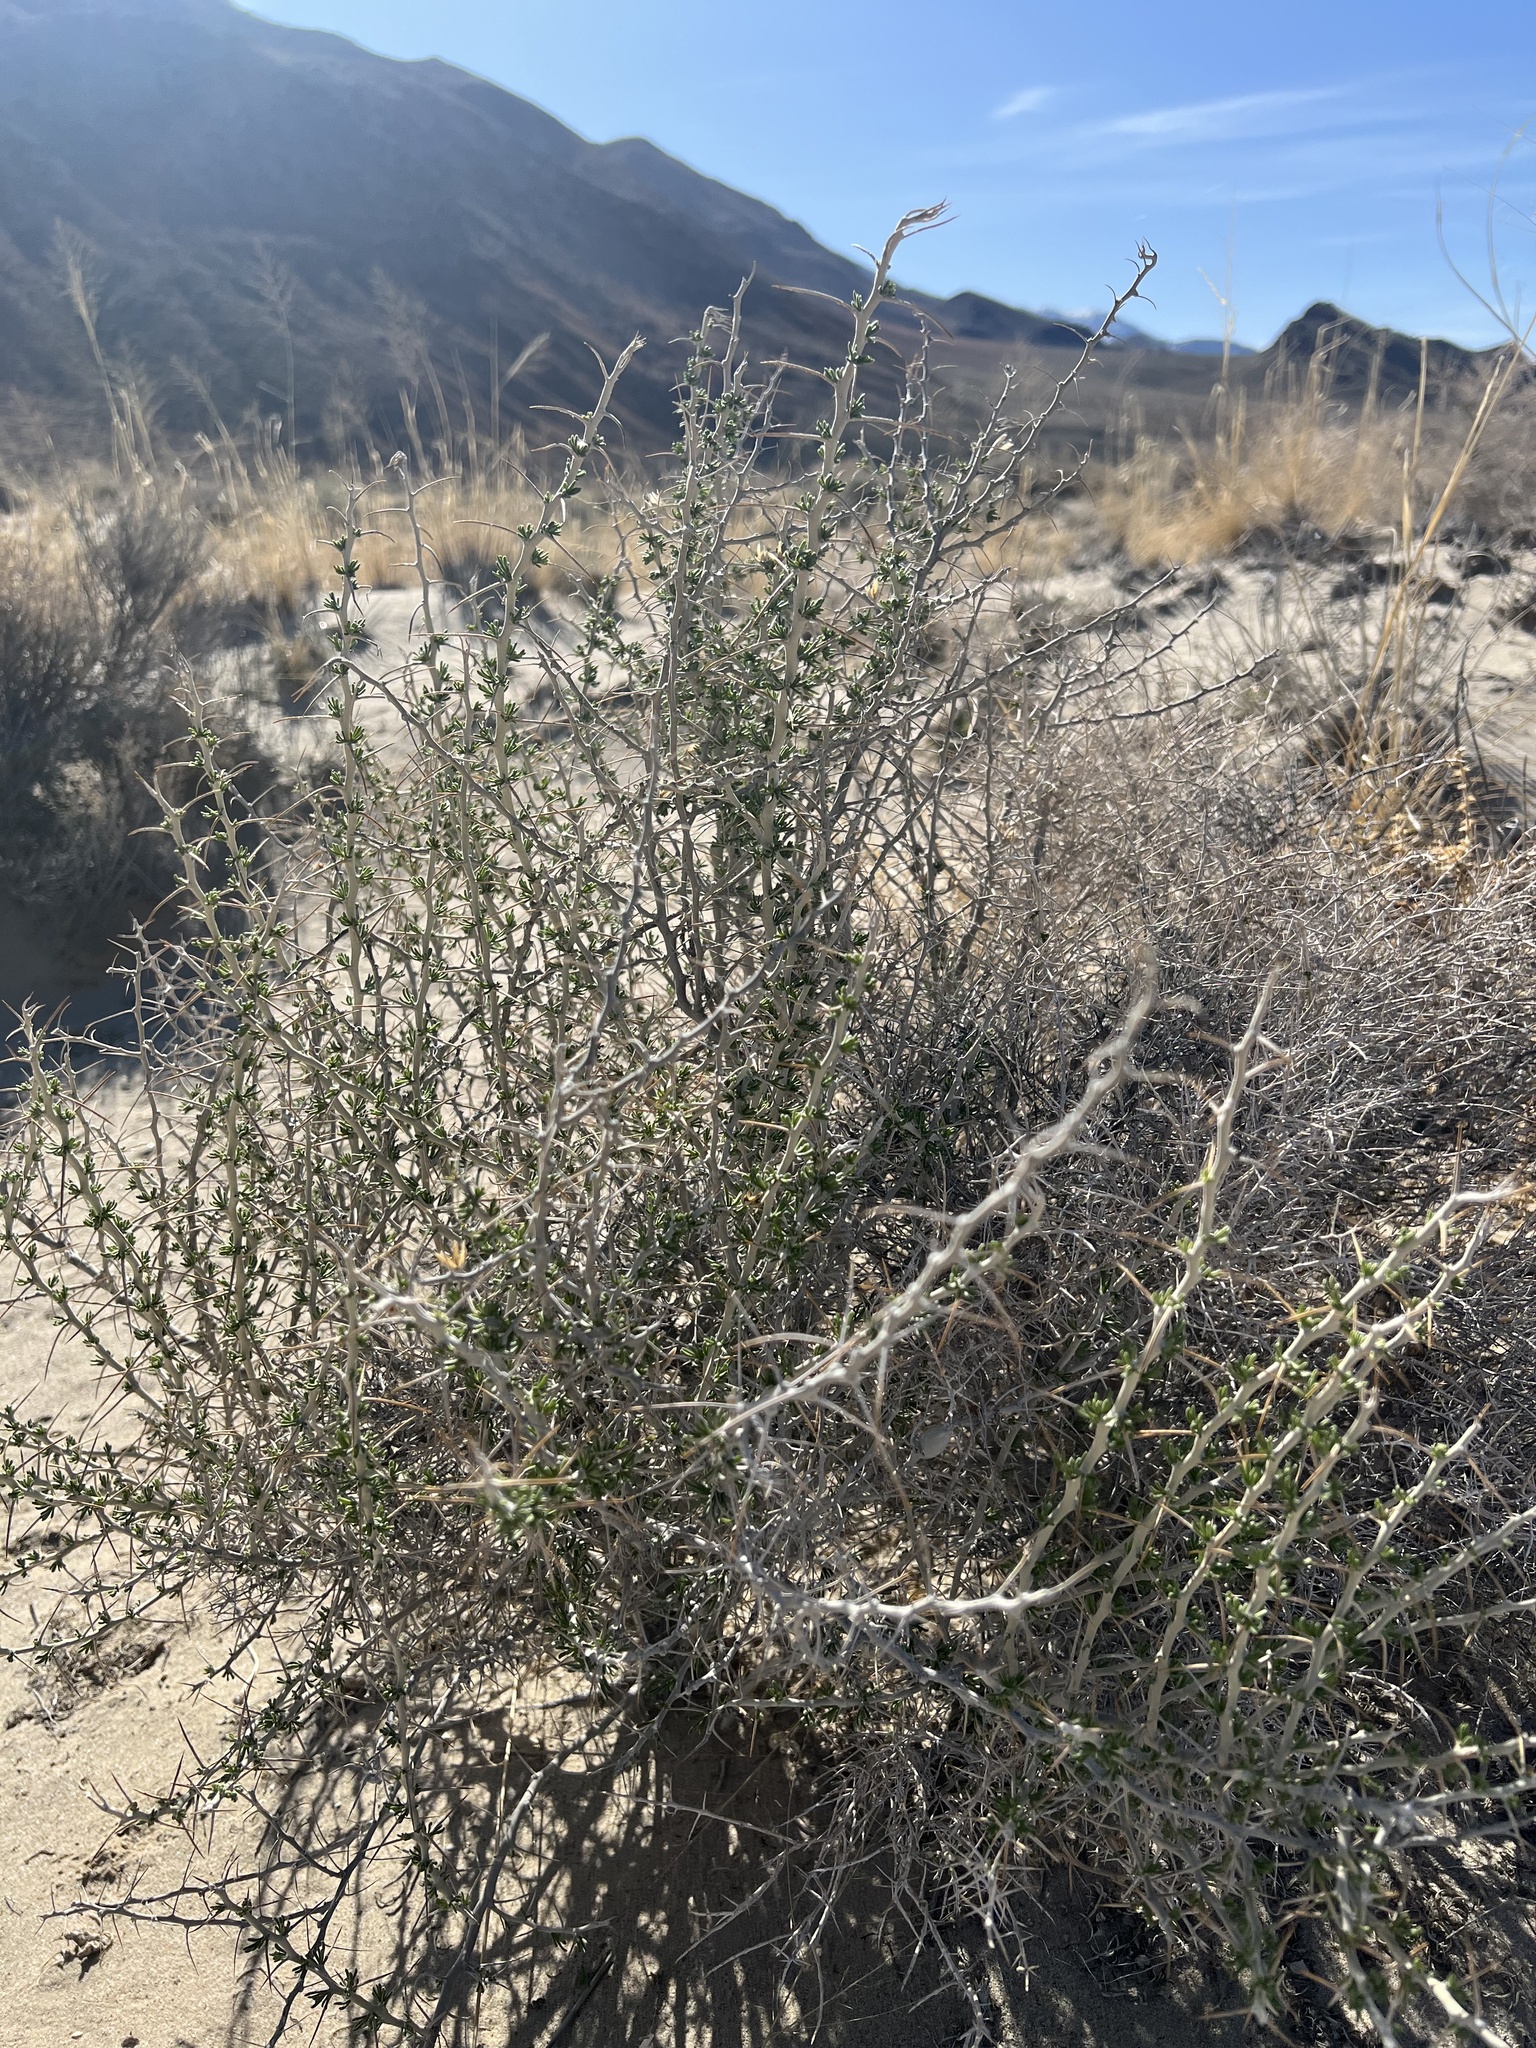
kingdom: Plantae
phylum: Tracheophyta
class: Magnoliopsida
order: Asterales
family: Asteraceae
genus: Tetradymia
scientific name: Tetradymia axillaris
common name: Long-spine horsebrush
